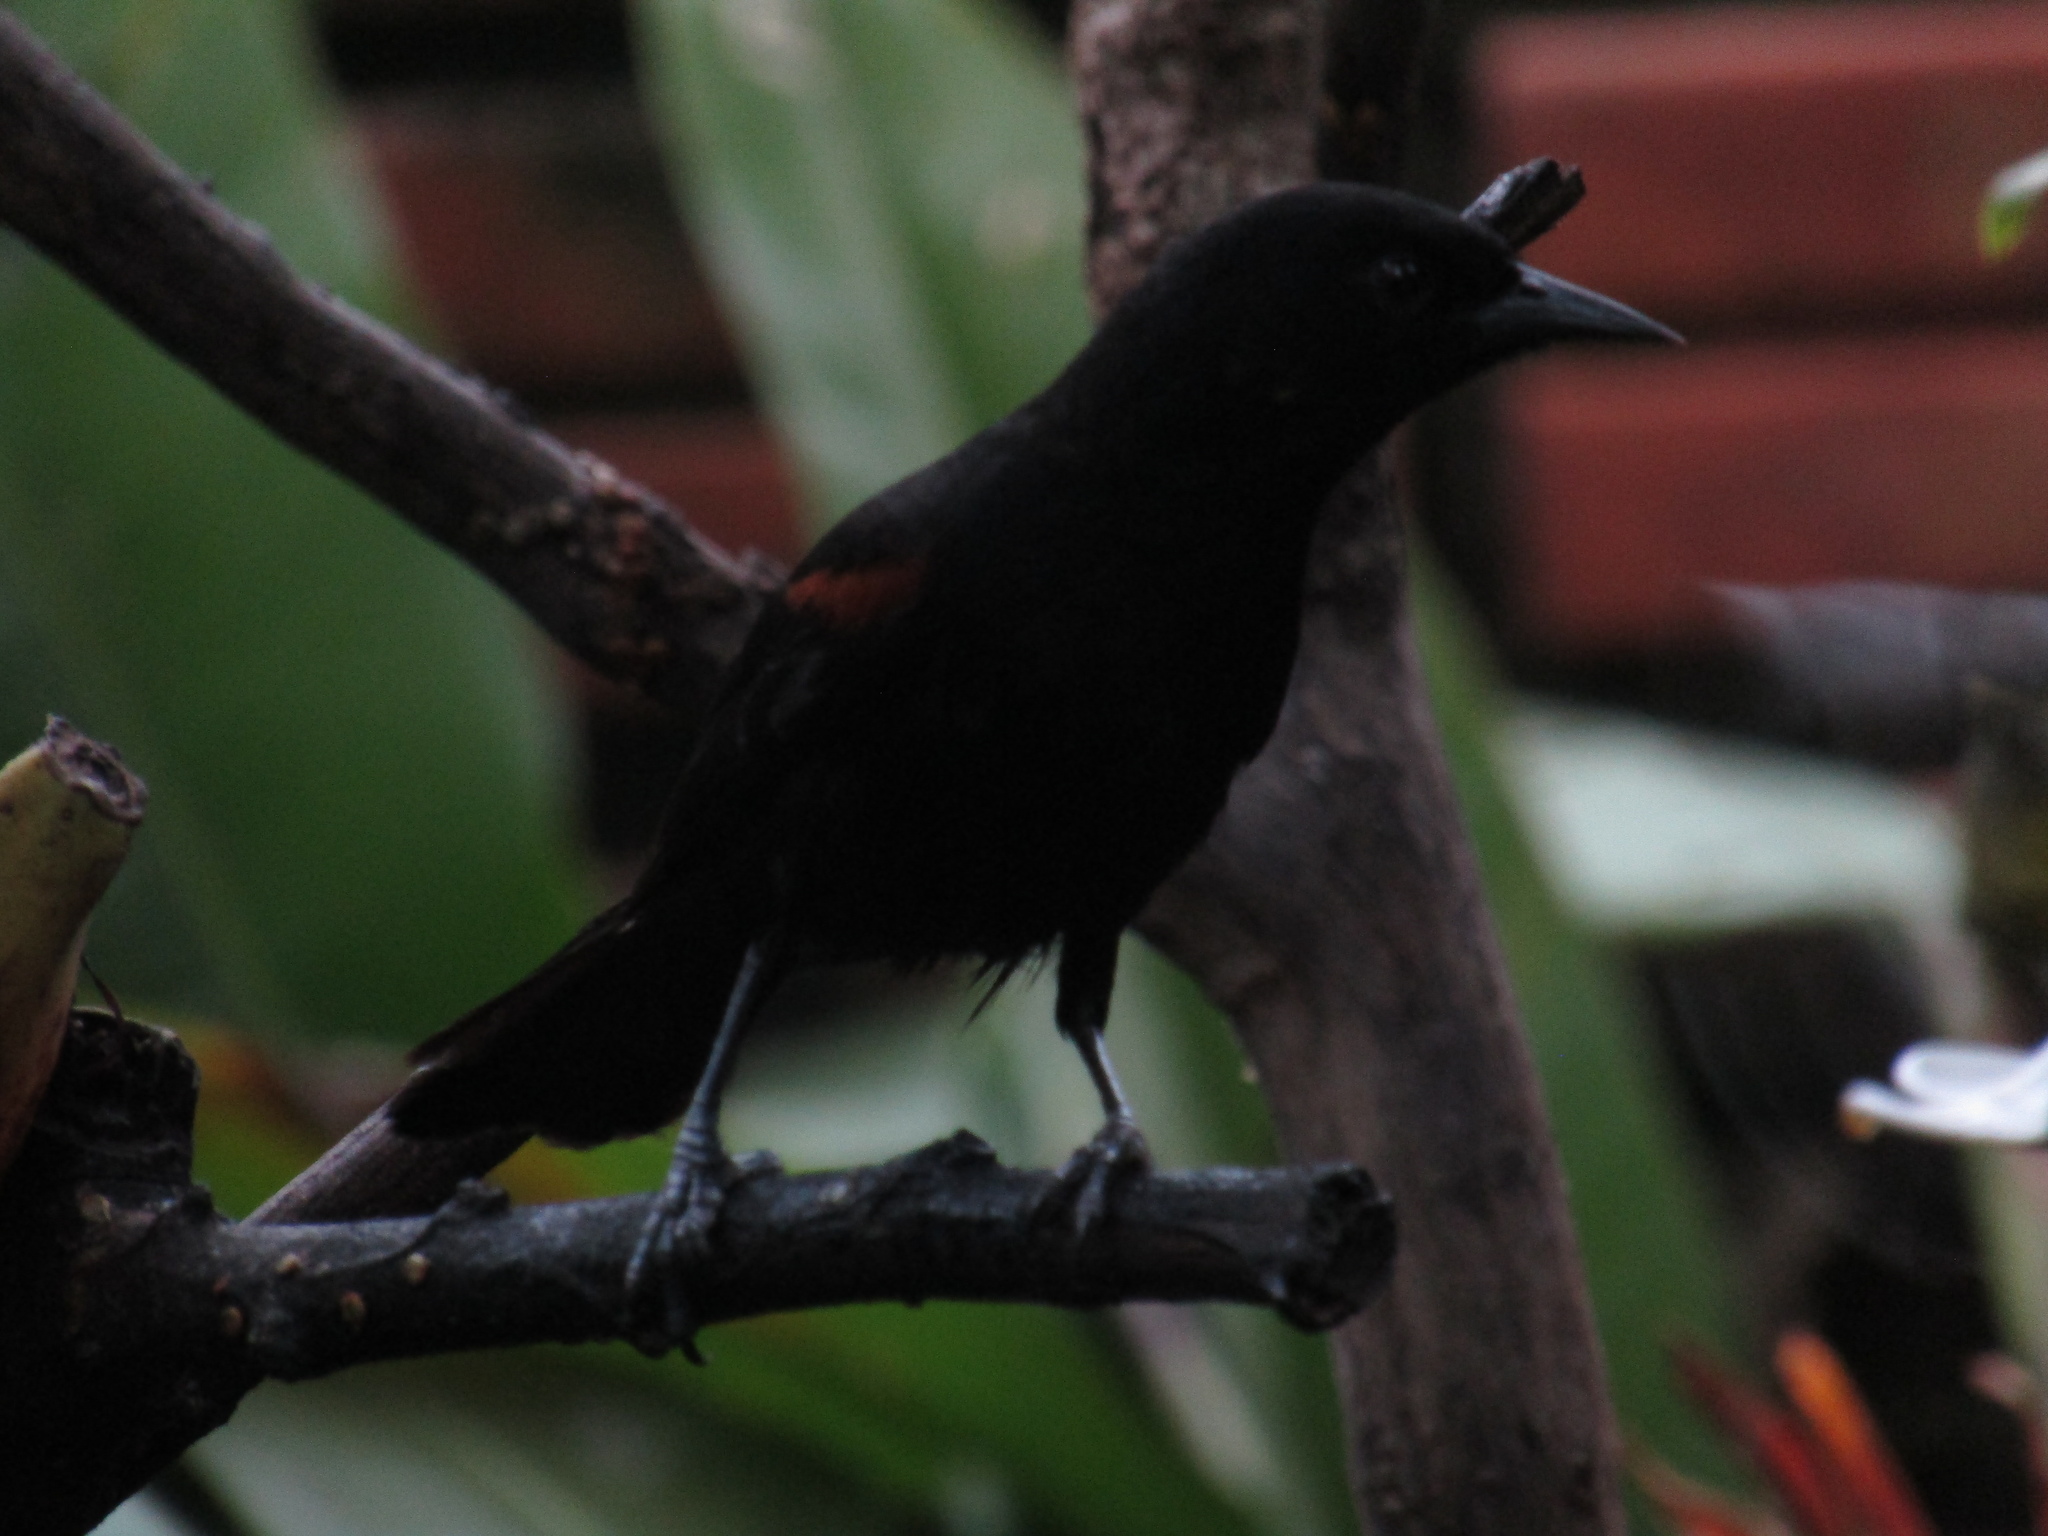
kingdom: Animalia
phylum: Chordata
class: Aves
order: Passeriformes
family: Icteridae
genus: Icterus
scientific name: Icterus cayanensis
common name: Epaulet oriole
